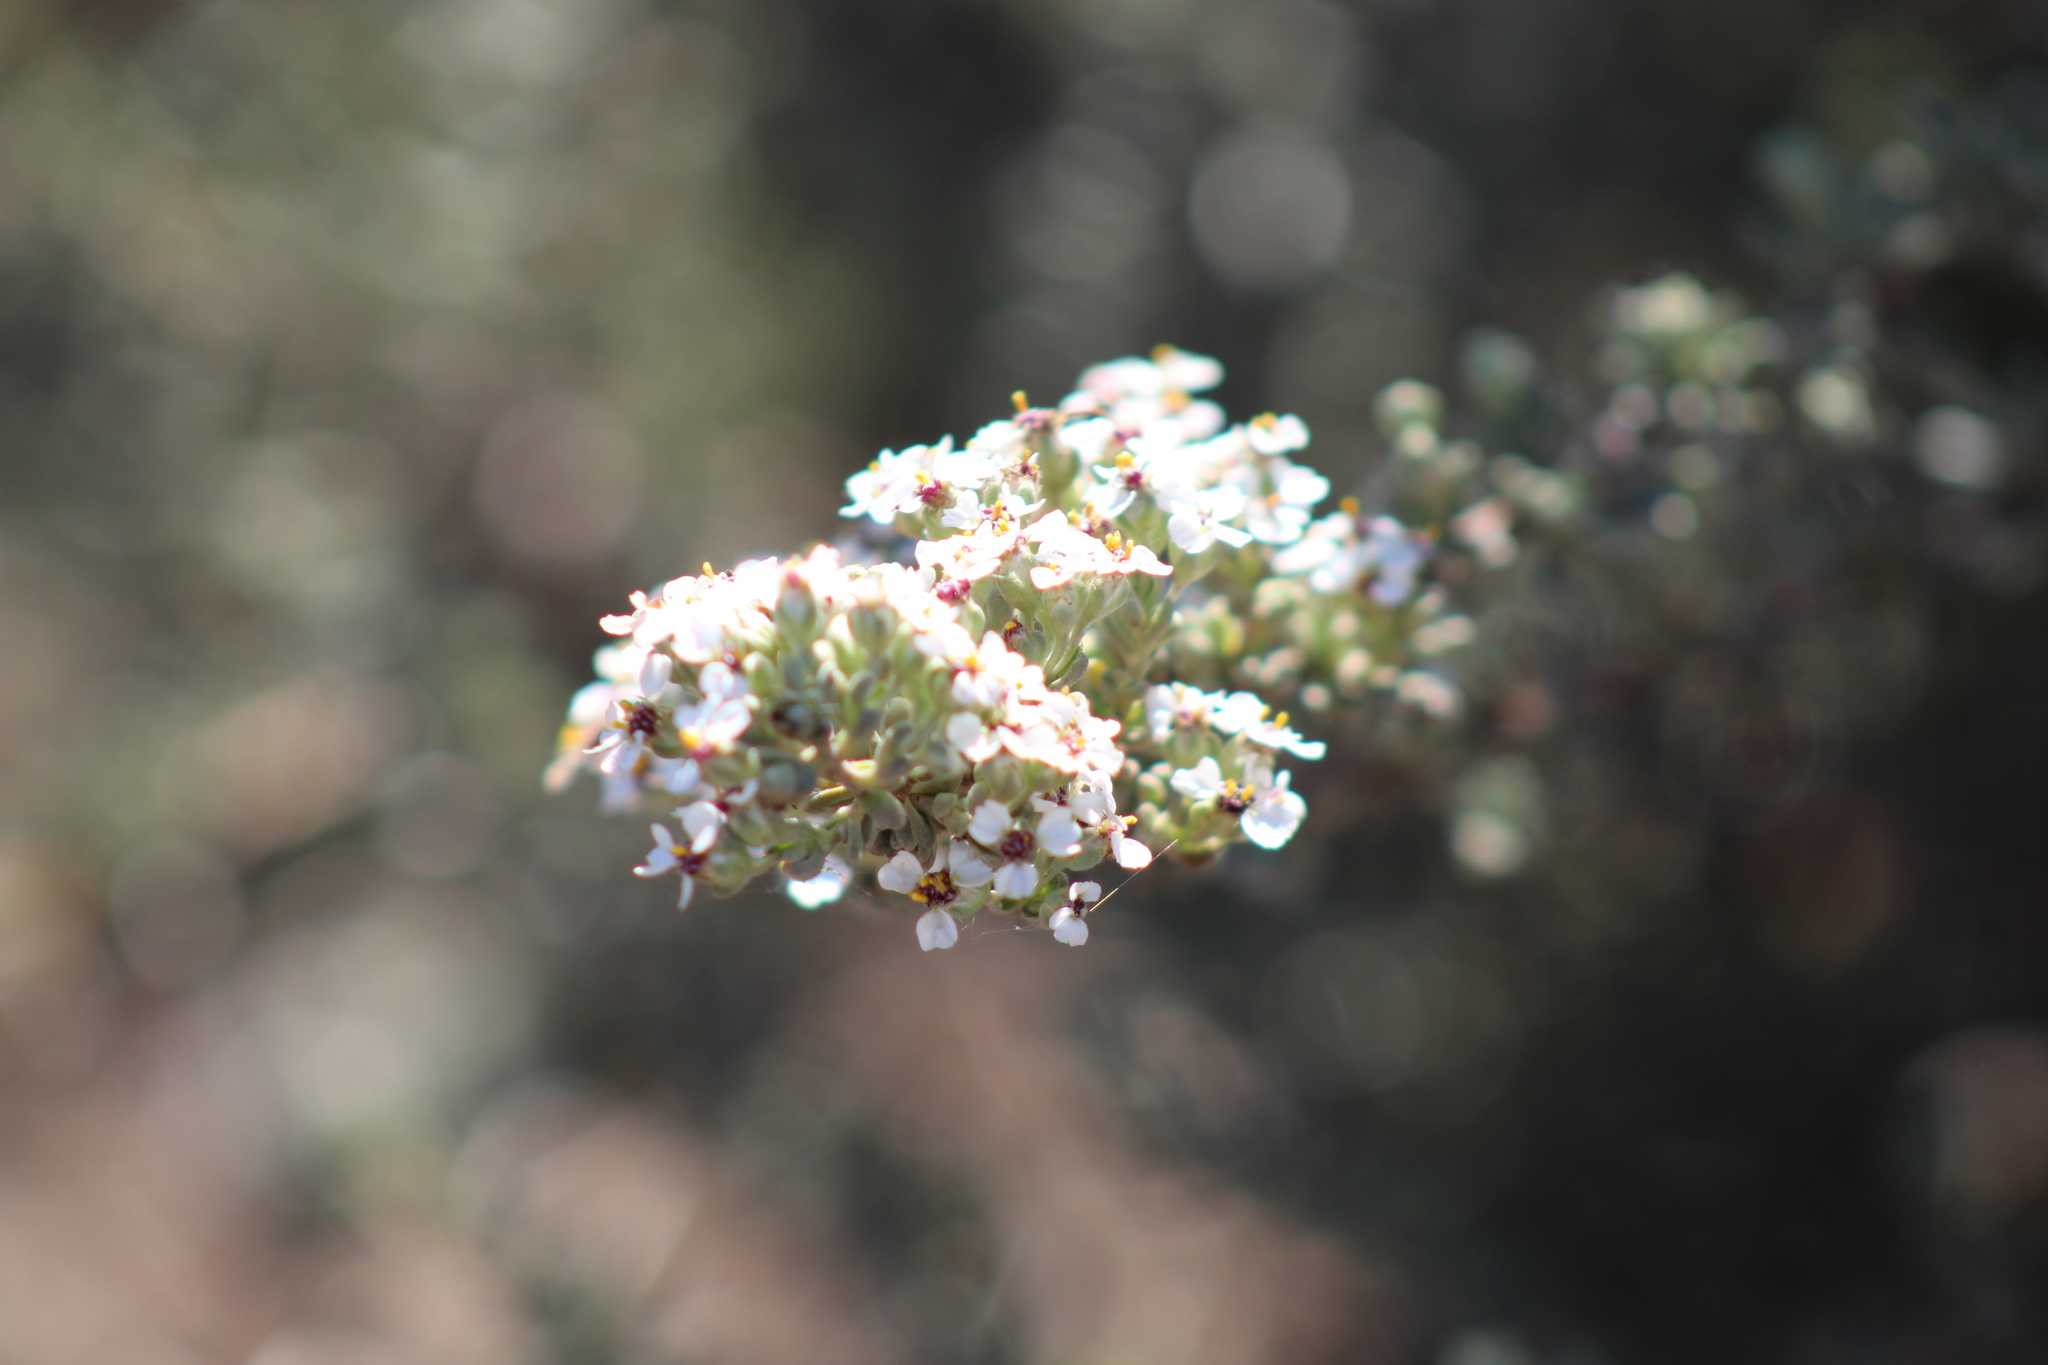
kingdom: Plantae
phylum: Tracheophyta
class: Magnoliopsida
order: Asterales
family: Asteraceae
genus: Eriocephalus
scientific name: Eriocephalus africanus
